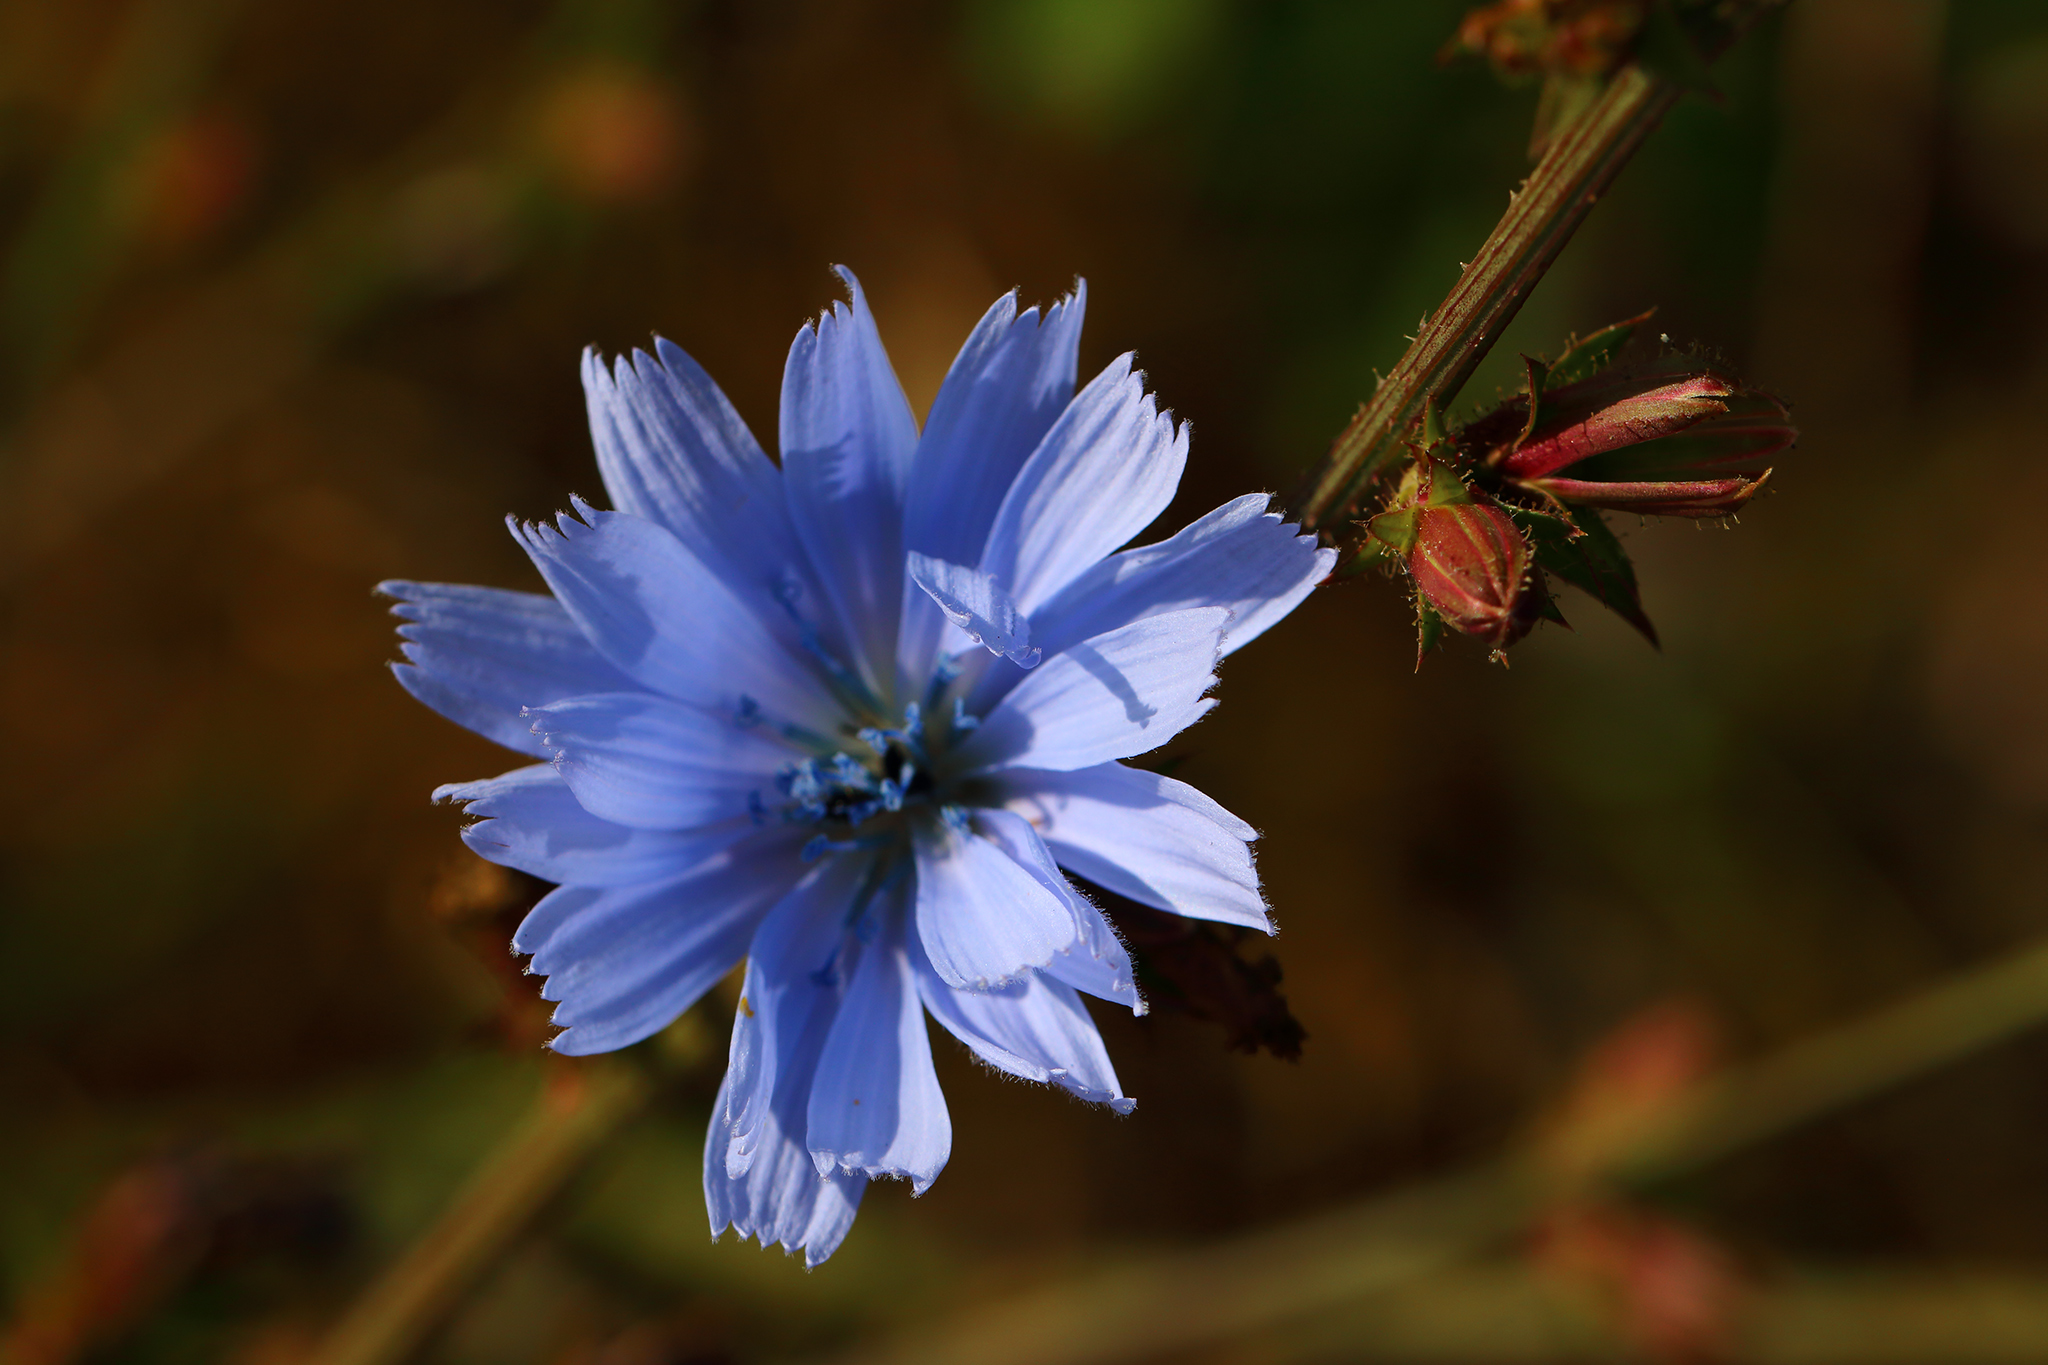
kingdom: Plantae
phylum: Tracheophyta
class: Magnoliopsida
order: Asterales
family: Asteraceae
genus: Cichorium
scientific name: Cichorium intybus
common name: Chicory
